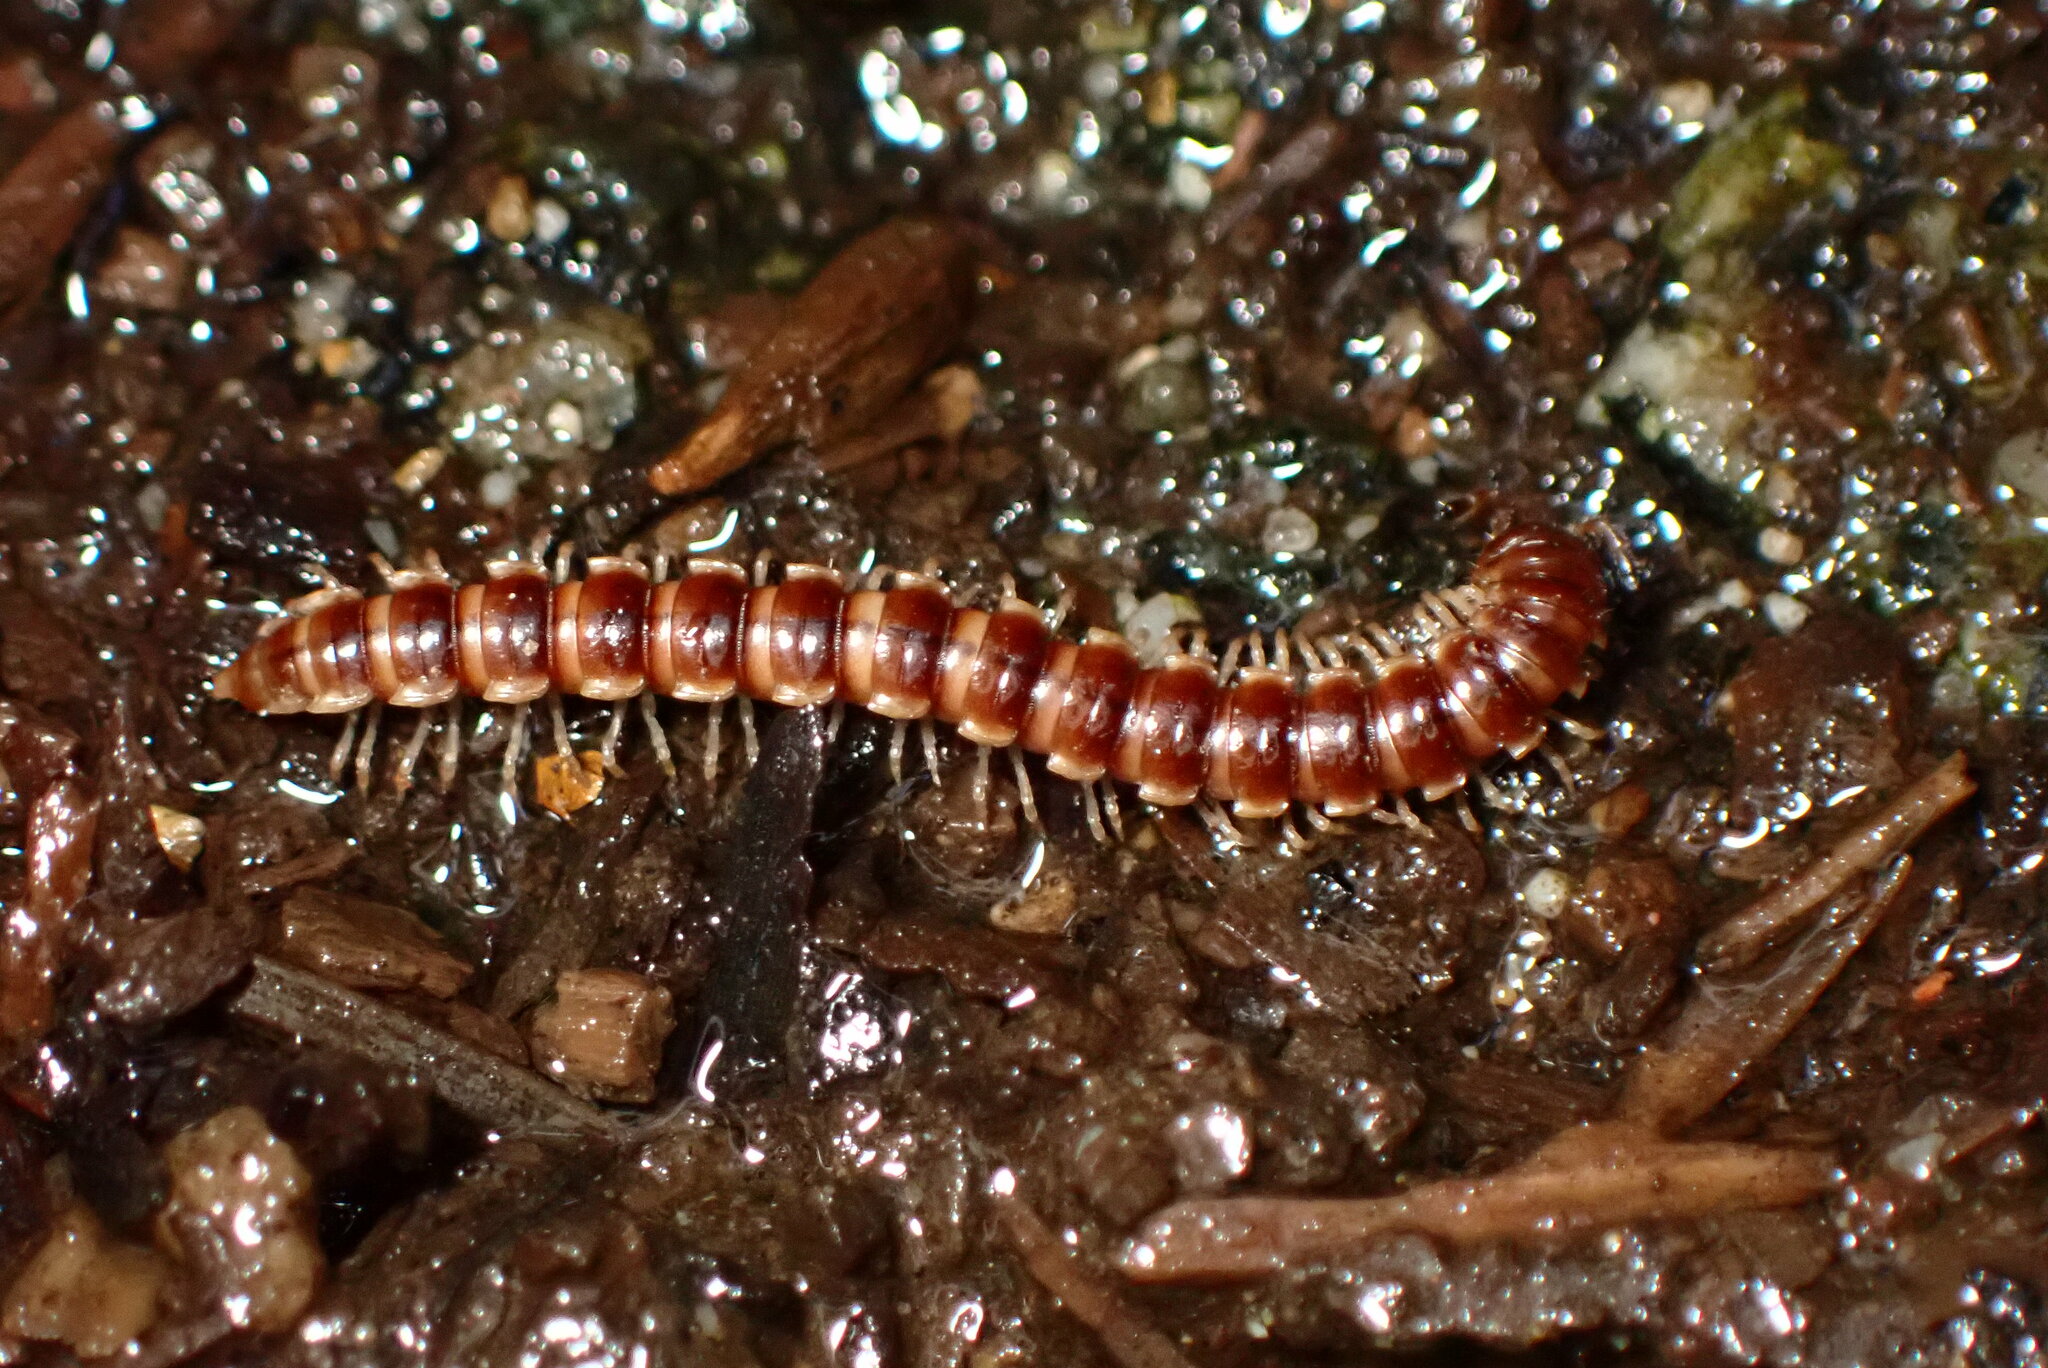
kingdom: Animalia
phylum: Arthropoda
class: Diplopoda
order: Polydesmida
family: Paradoxosomatidae
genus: Oxidus
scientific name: Oxidus gracilis
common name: Greenhouse millipede
